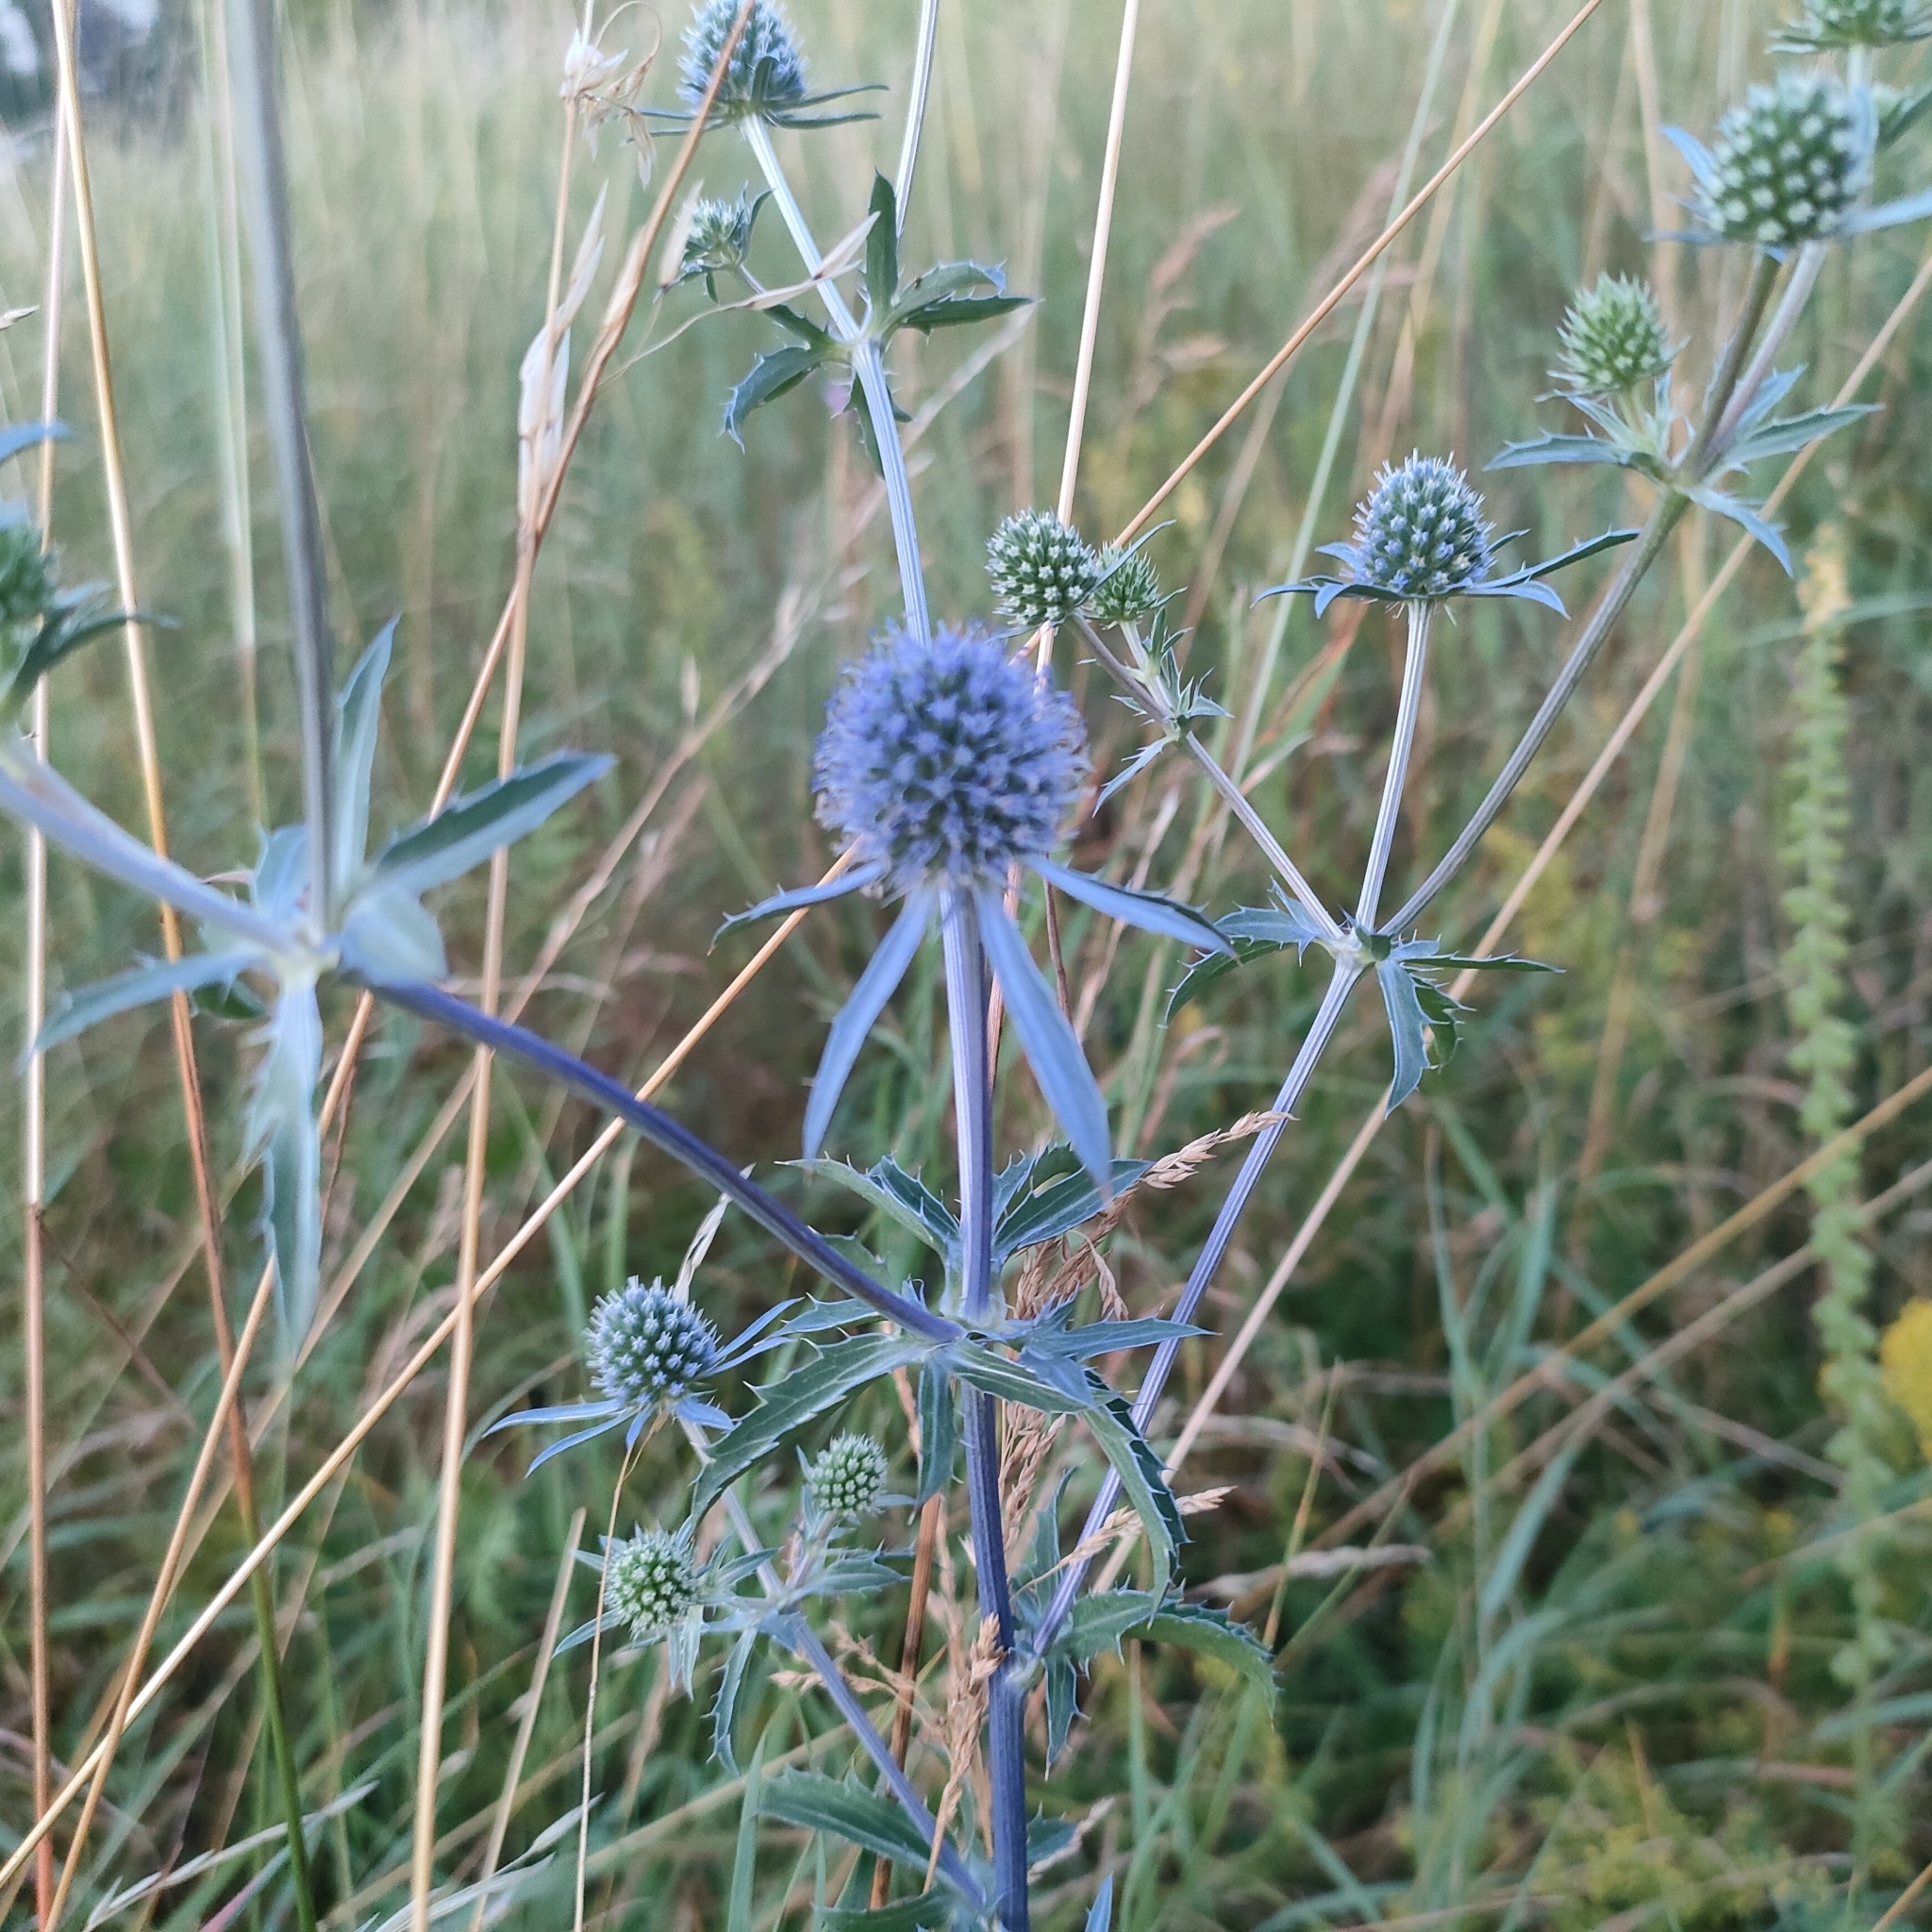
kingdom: Plantae
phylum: Tracheophyta
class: Magnoliopsida
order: Apiales
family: Apiaceae
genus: Eryngium
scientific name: Eryngium planum
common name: Blue eryngo
